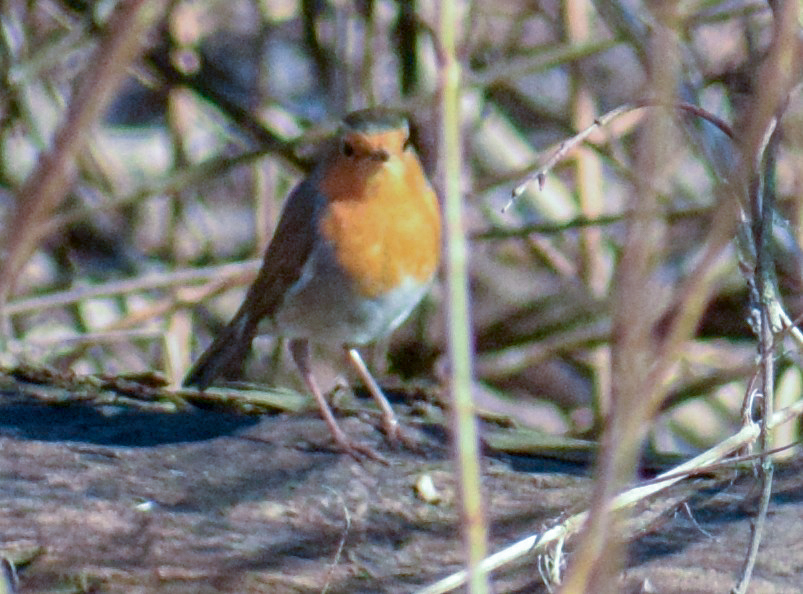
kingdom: Animalia
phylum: Chordata
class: Aves
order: Passeriformes
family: Muscicapidae
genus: Erithacus
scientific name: Erithacus rubecula
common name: European robin
